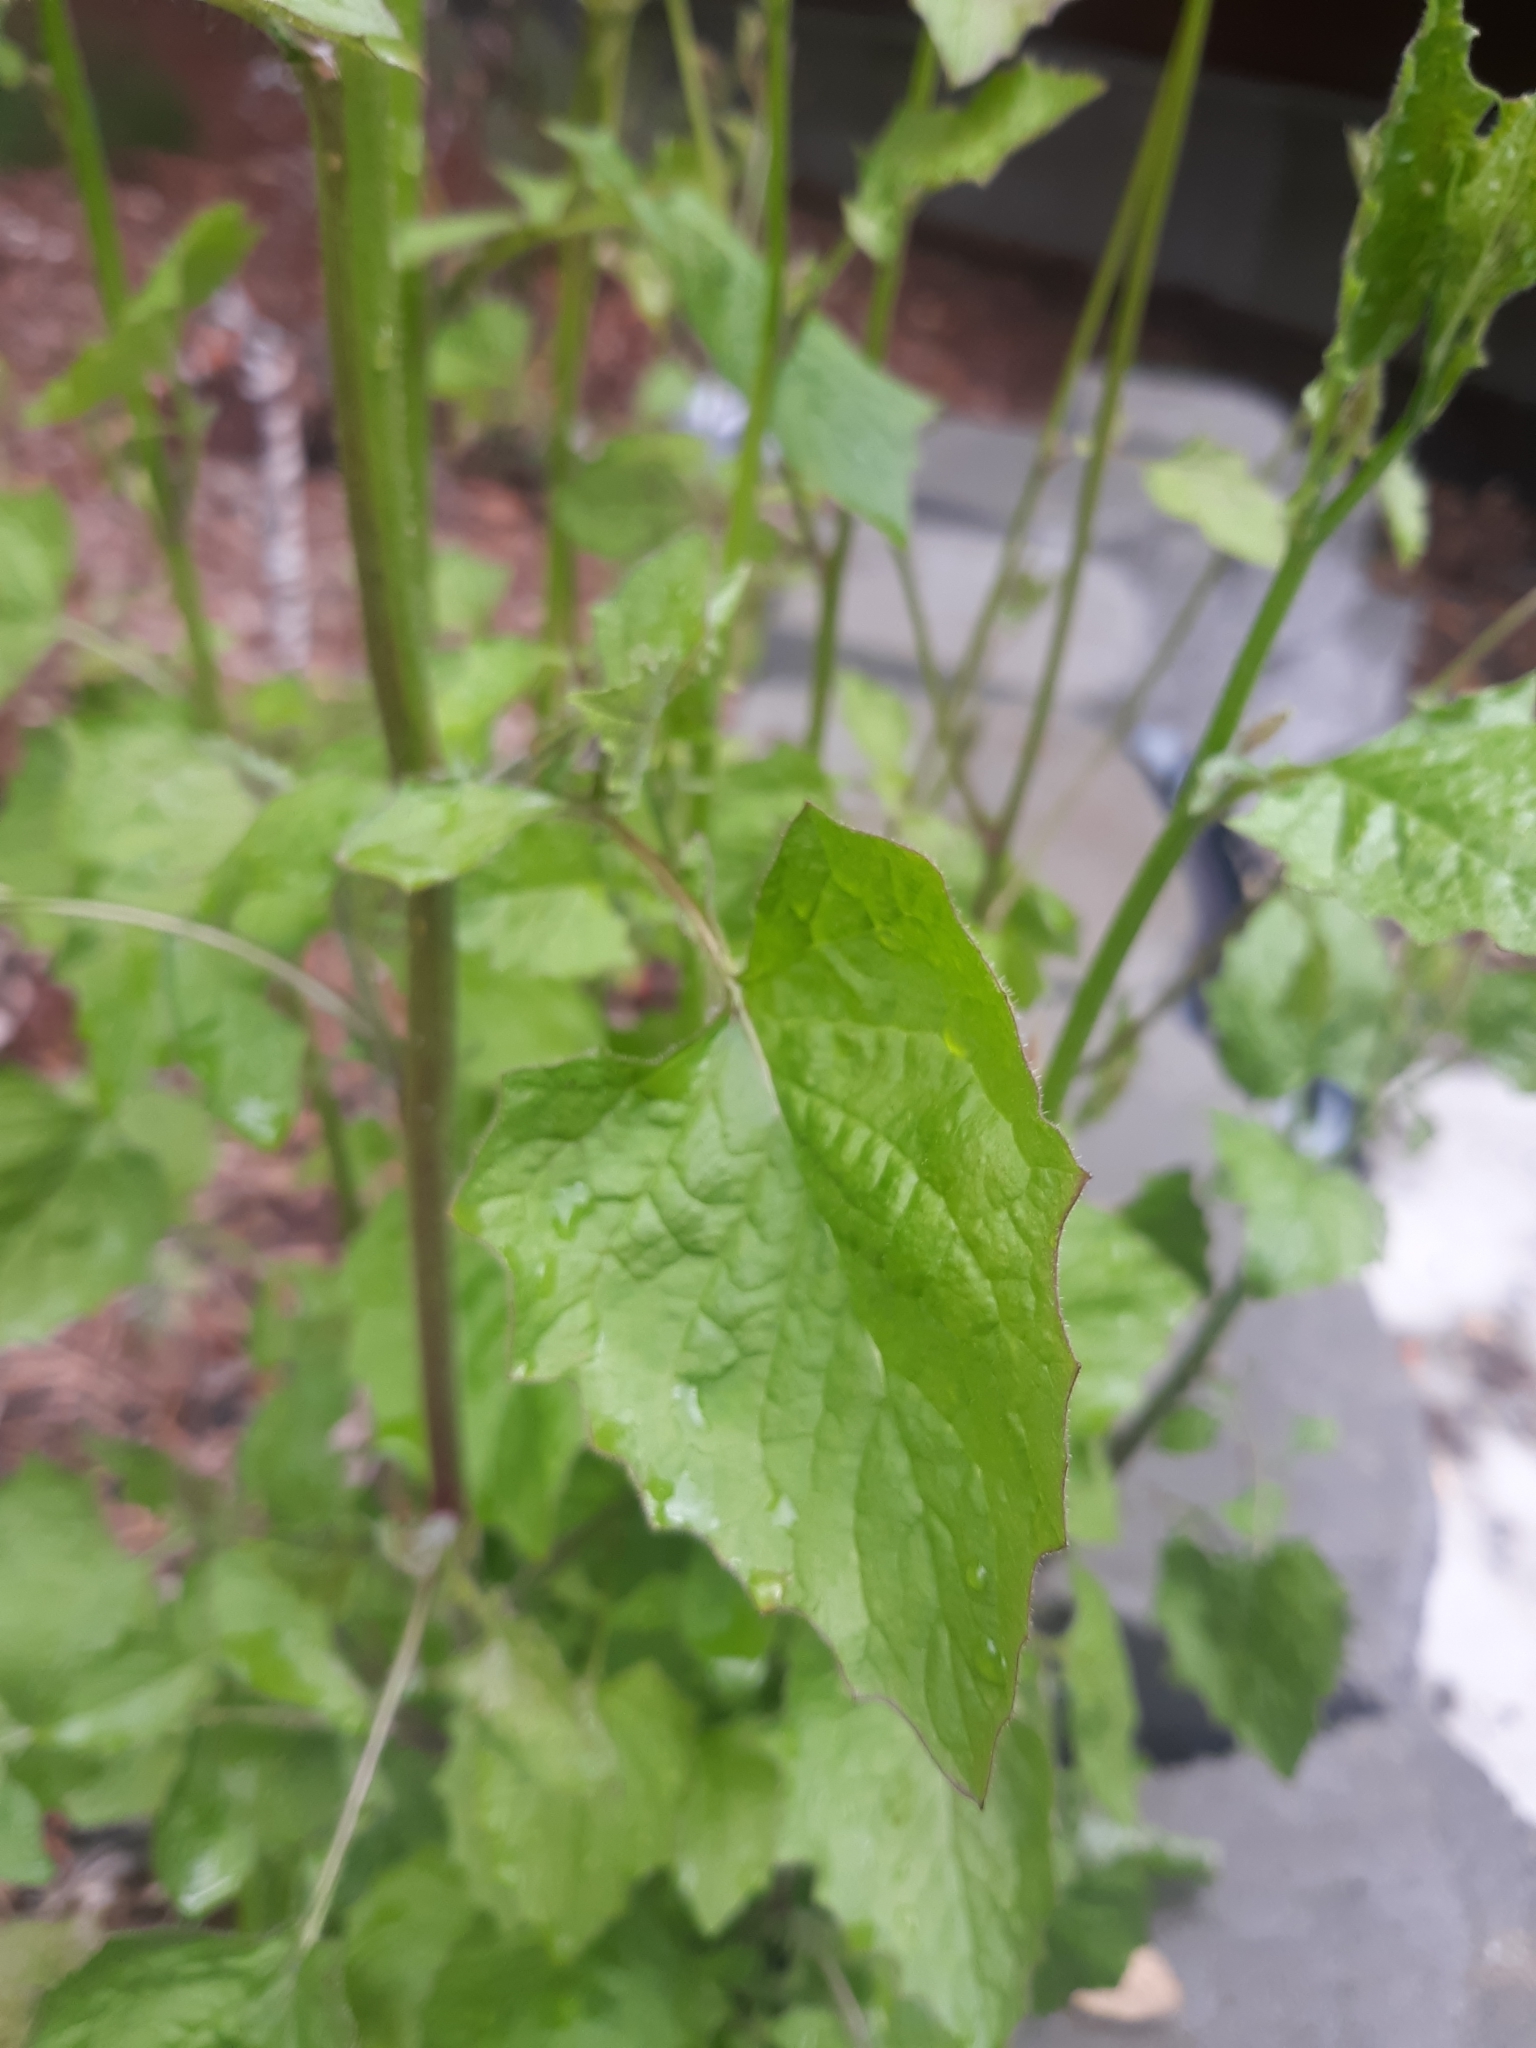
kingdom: Plantae
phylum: Tracheophyta
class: Magnoliopsida
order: Asterales
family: Asteraceae
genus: Lapsana
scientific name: Lapsana communis
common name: Nipplewort
